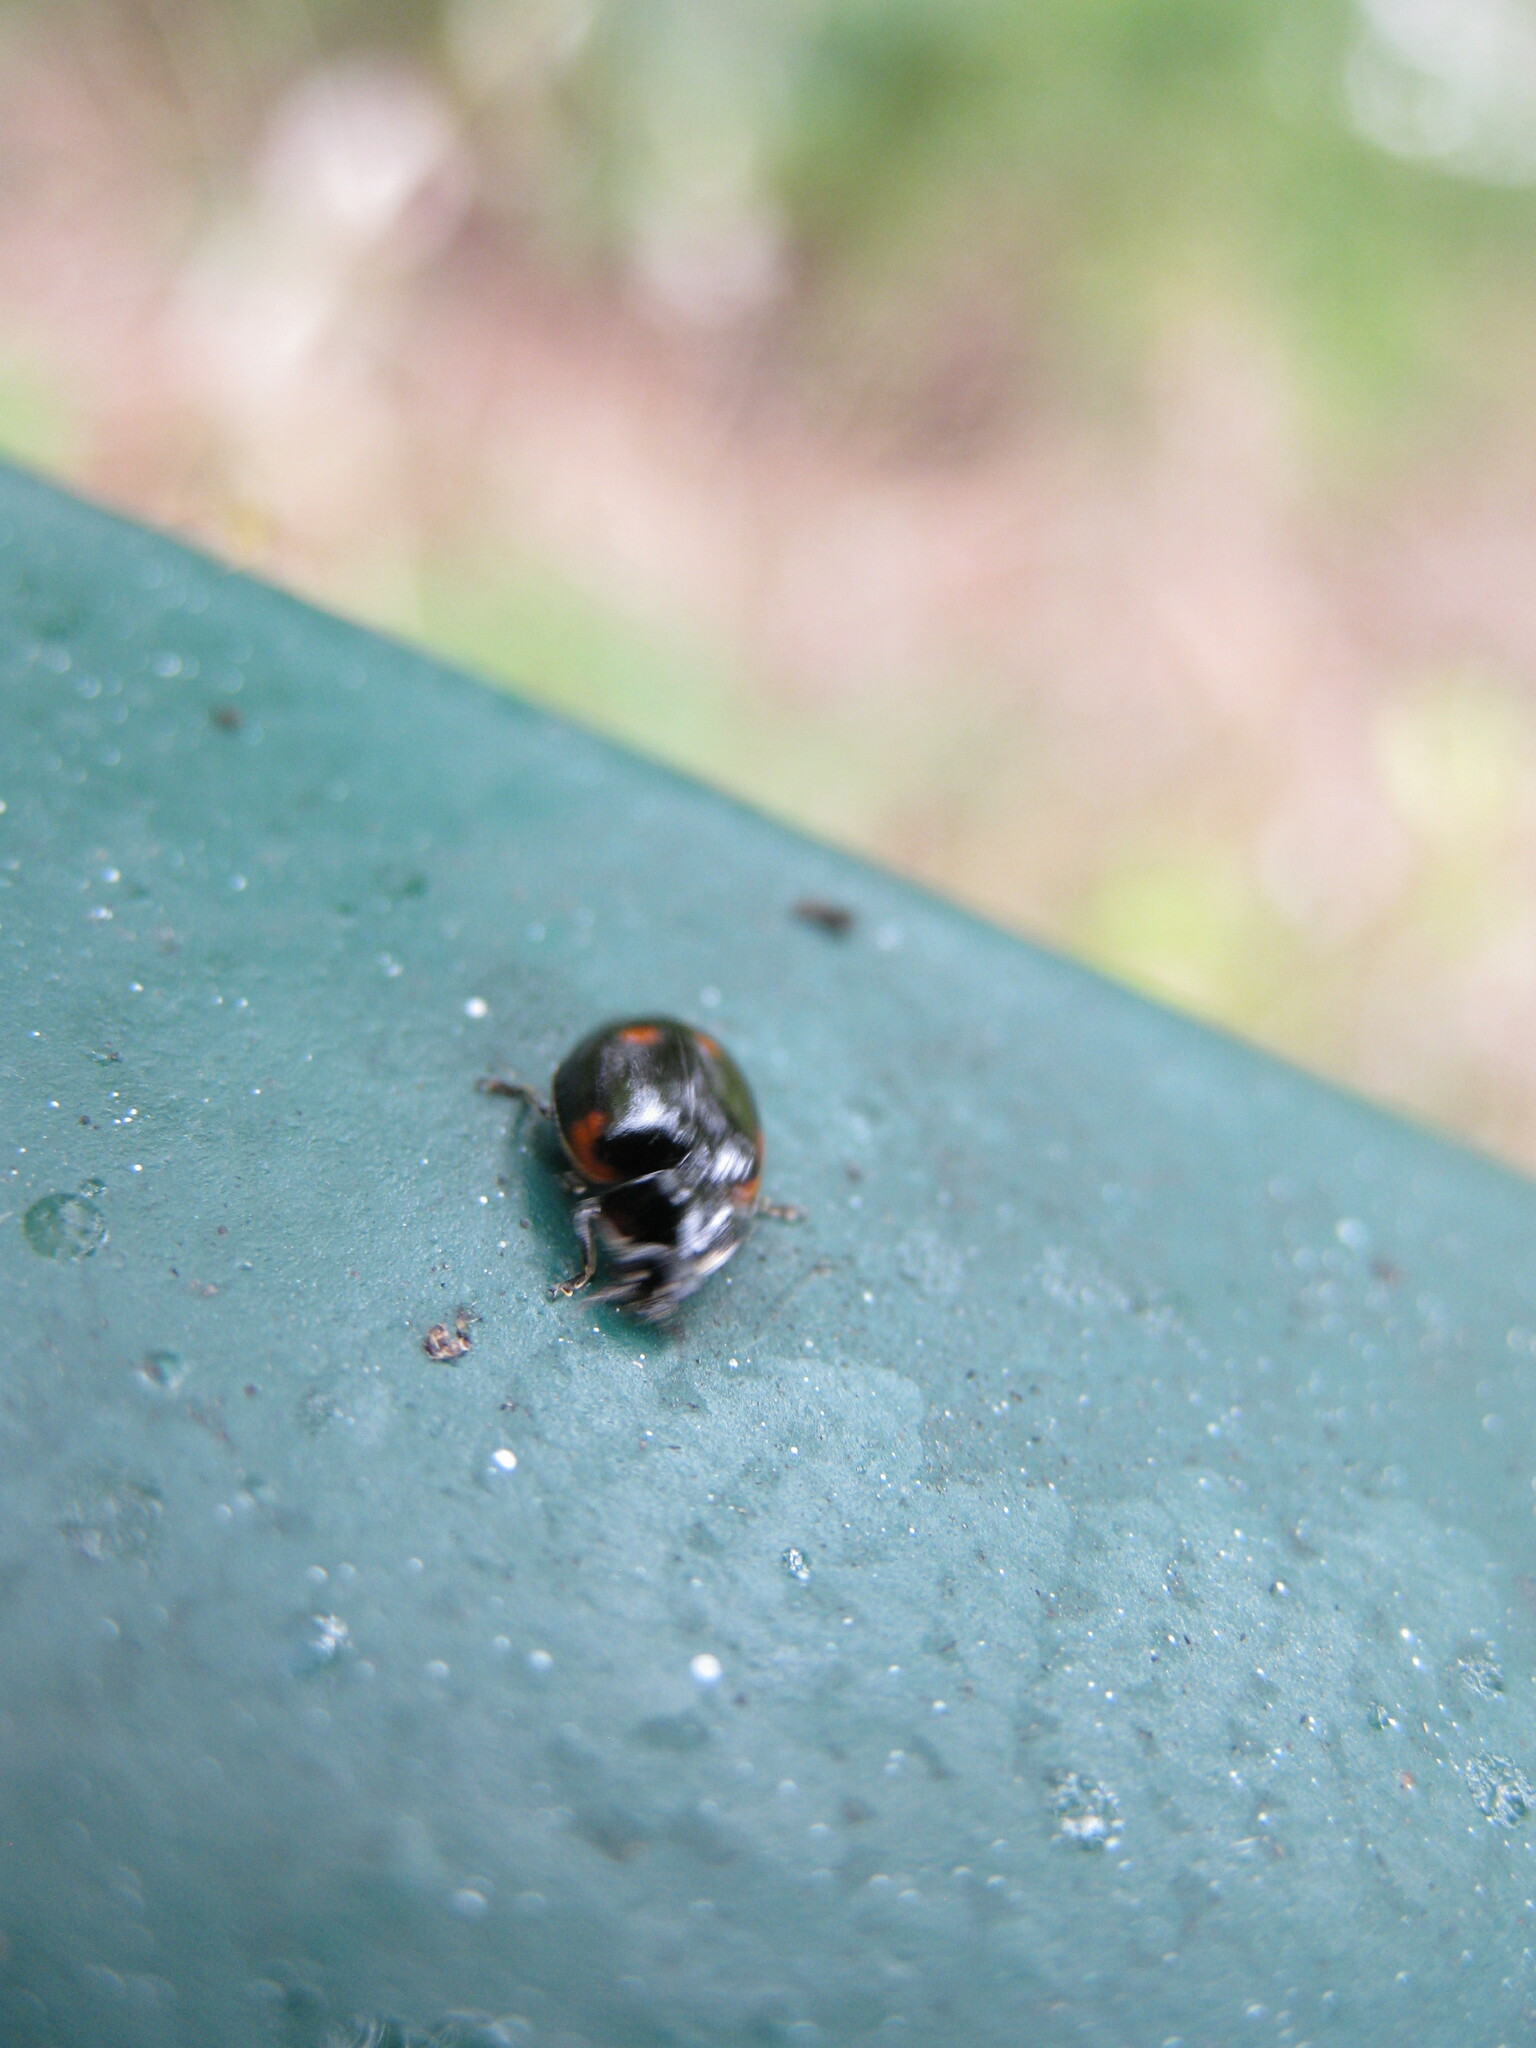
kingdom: Animalia
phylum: Arthropoda
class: Insecta
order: Coleoptera
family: Coccinellidae
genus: Adalia
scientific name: Adalia bipunctata
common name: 2-spot ladybird
